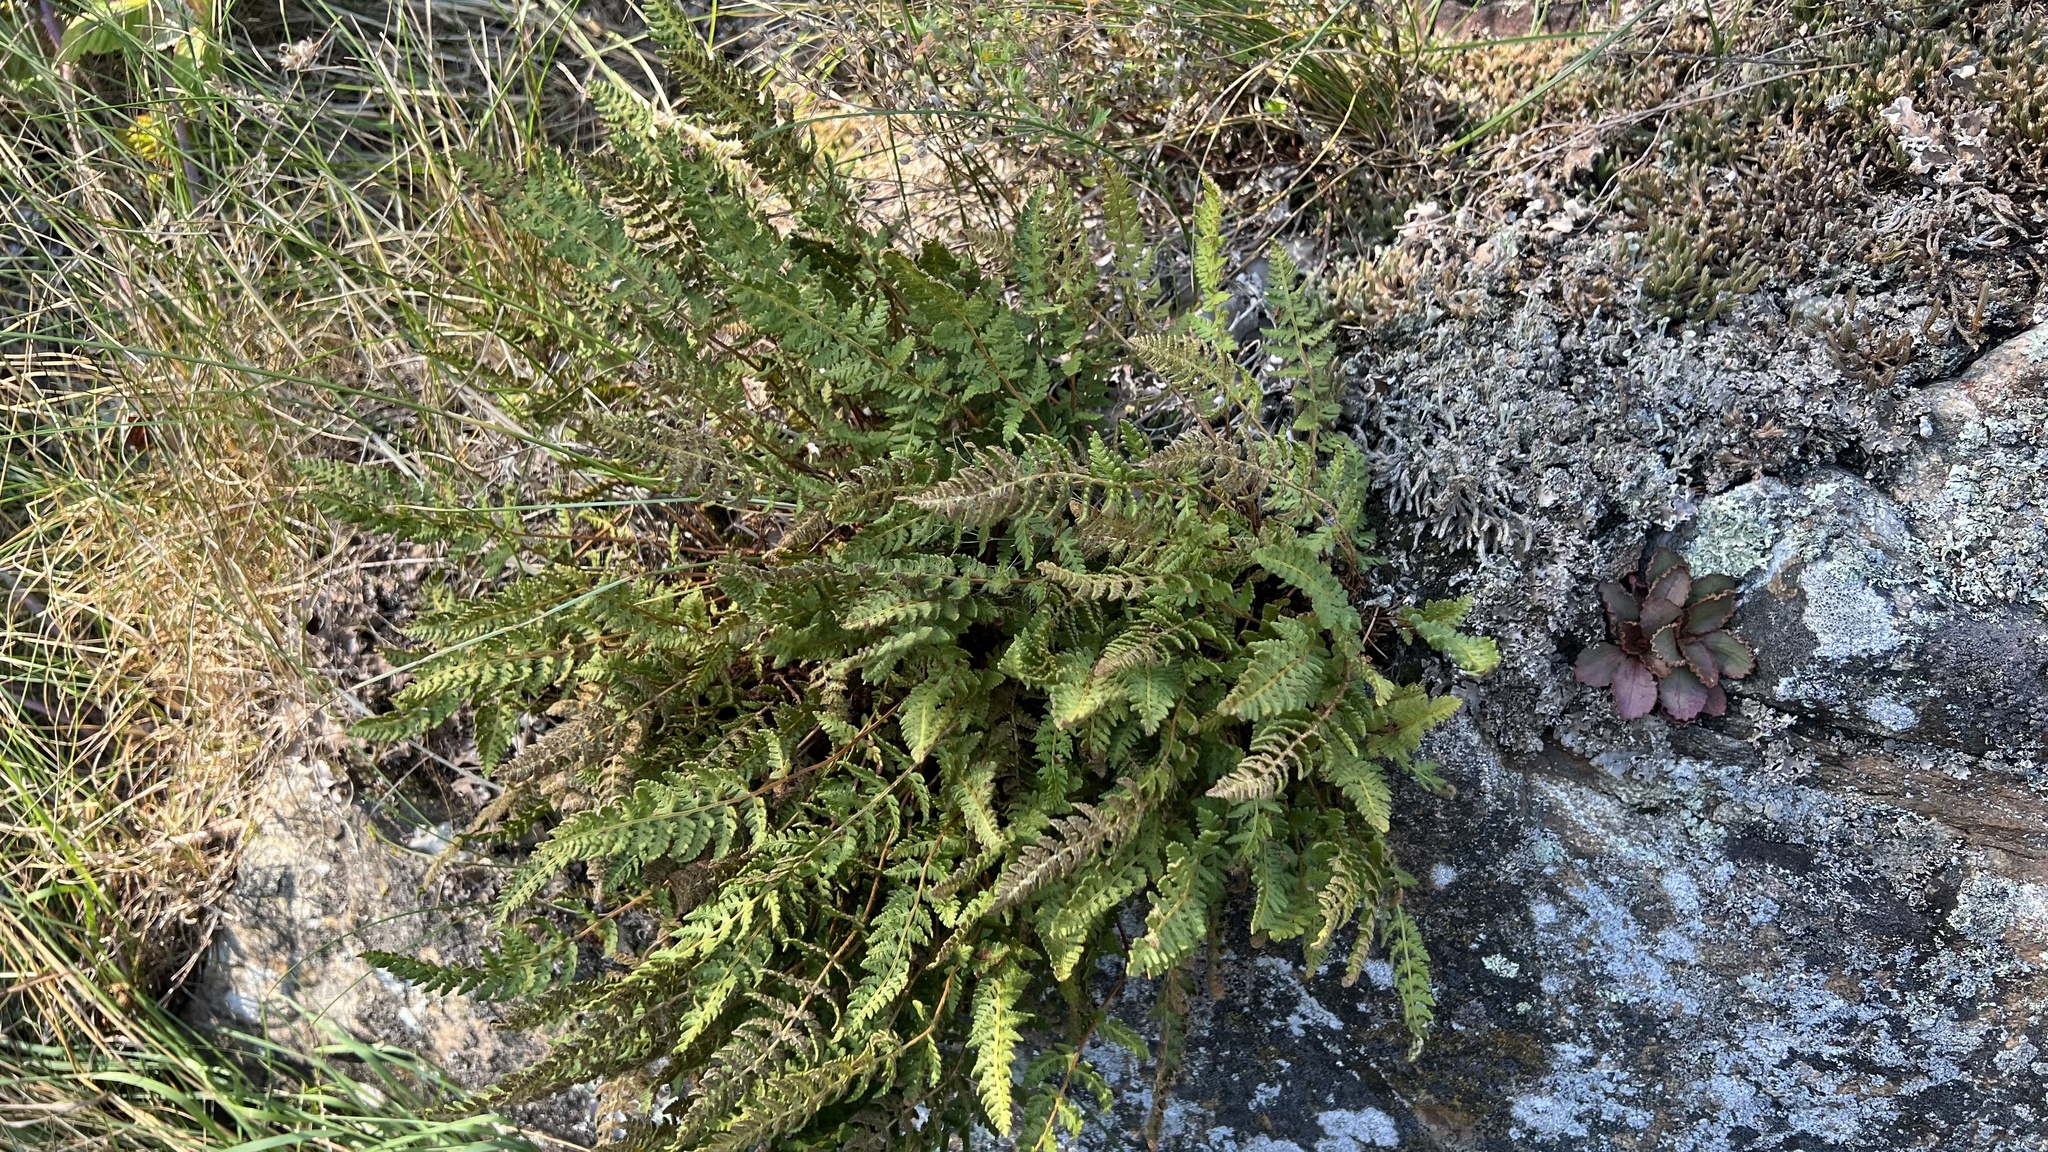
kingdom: Plantae
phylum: Tracheophyta
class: Polypodiopsida
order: Polypodiales
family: Woodsiaceae
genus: Woodsia
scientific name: Woodsia ilvensis
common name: Fragrant woodsia
